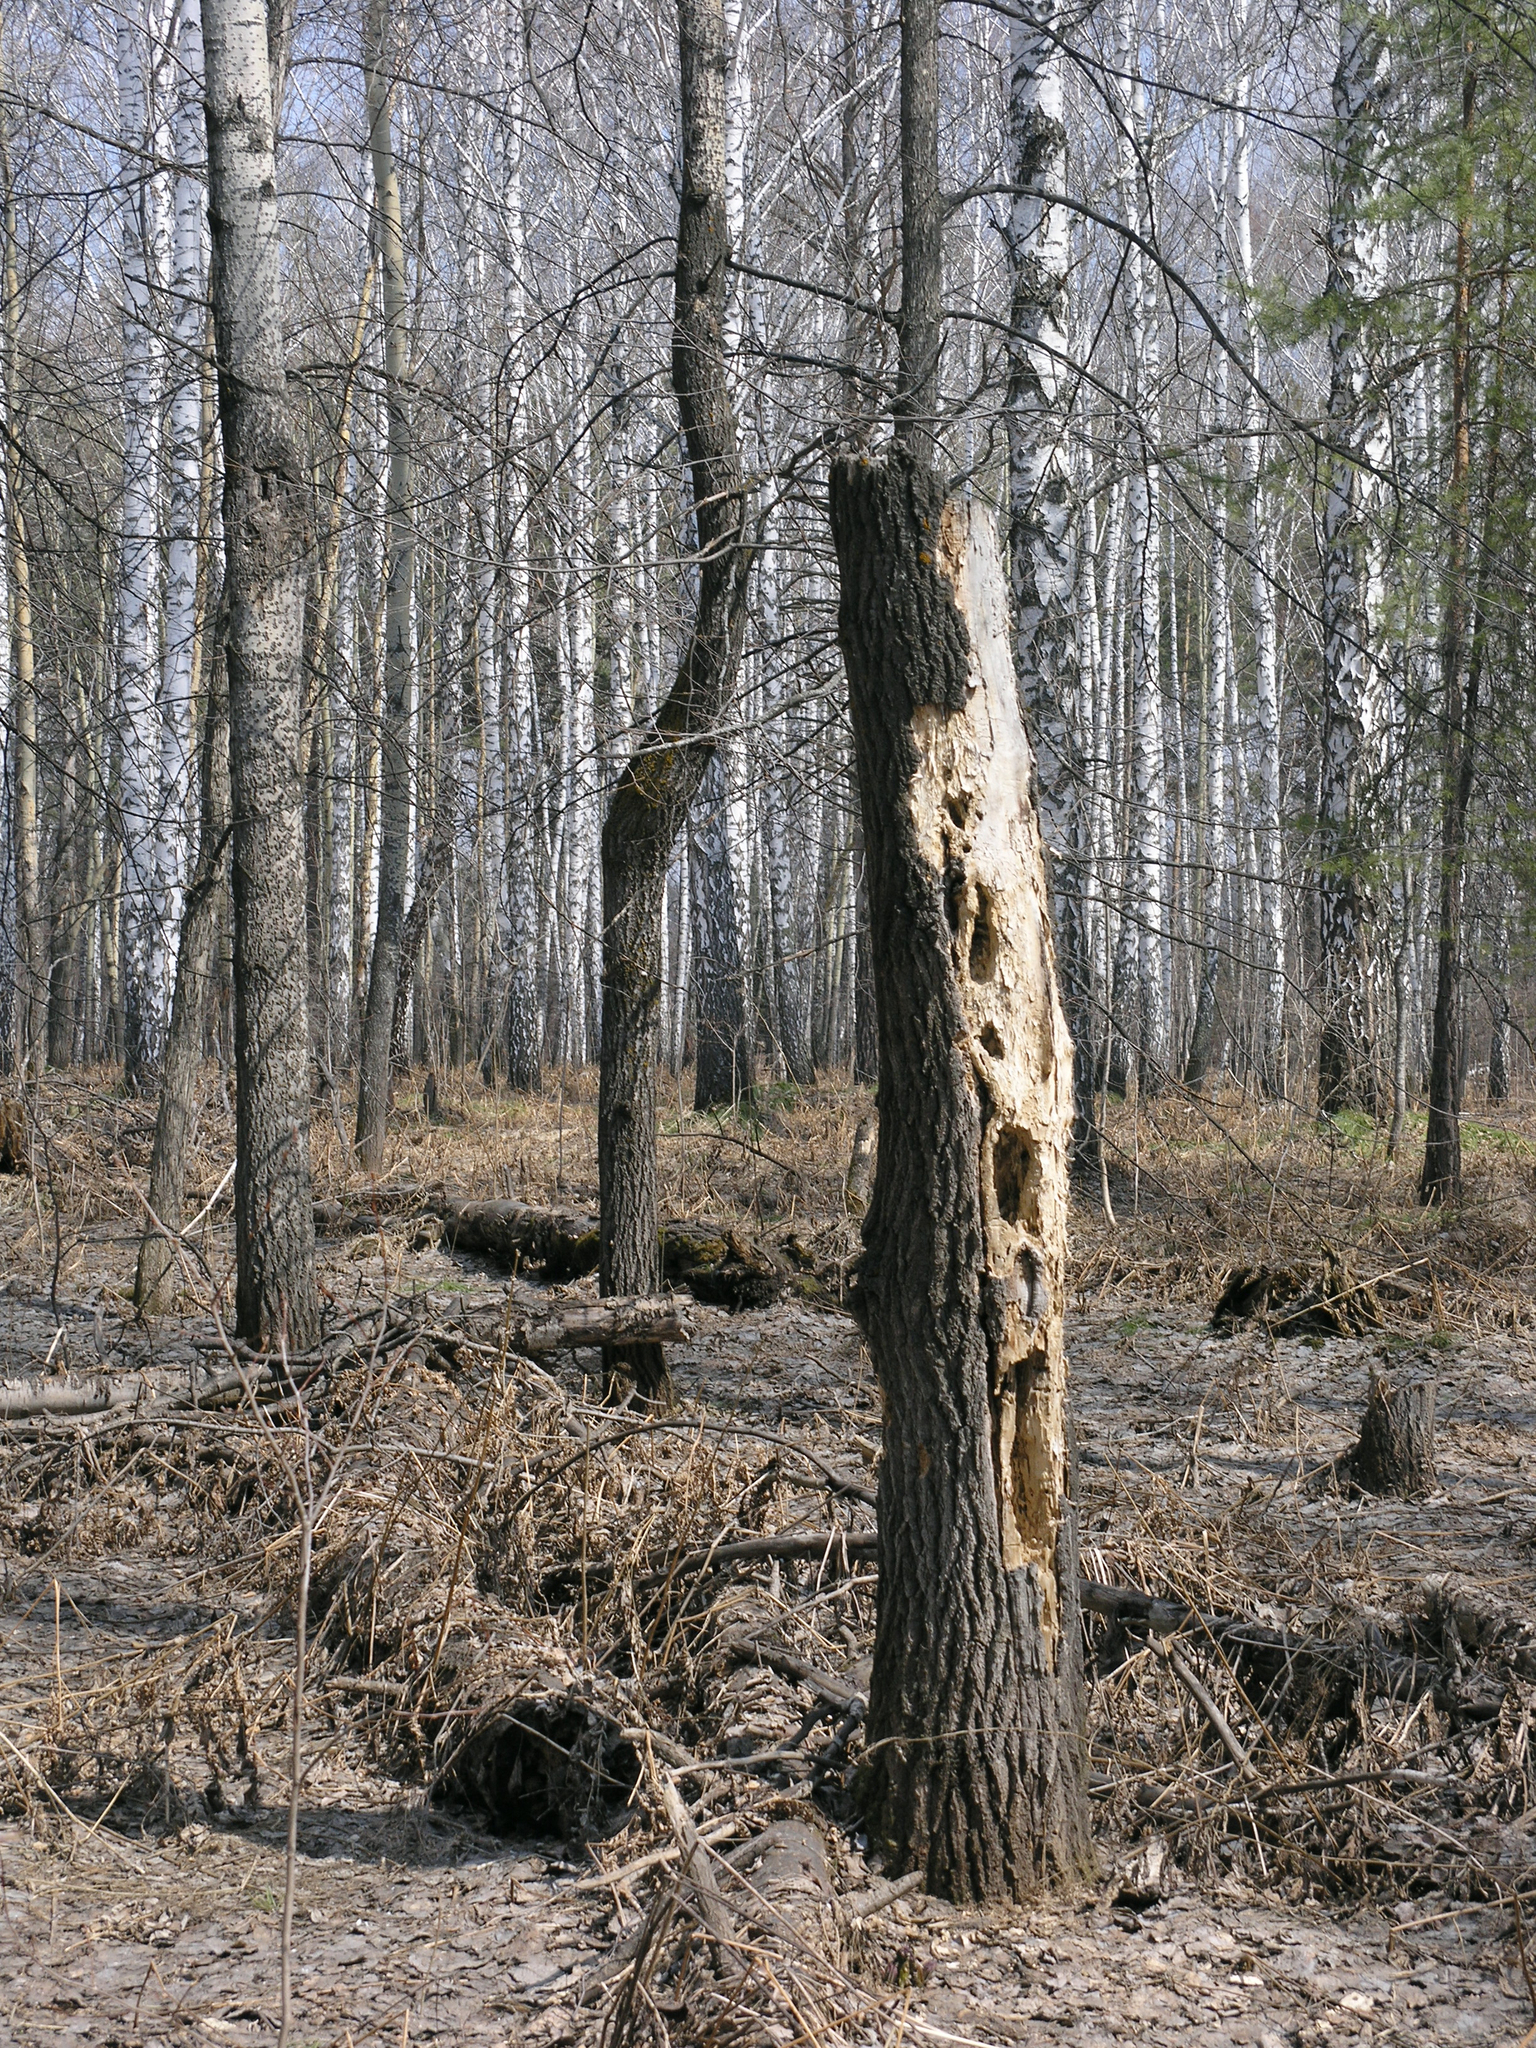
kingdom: Animalia
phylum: Chordata
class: Aves
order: Piciformes
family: Picidae
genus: Dryocopus
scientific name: Dryocopus martius
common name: Black woodpecker
